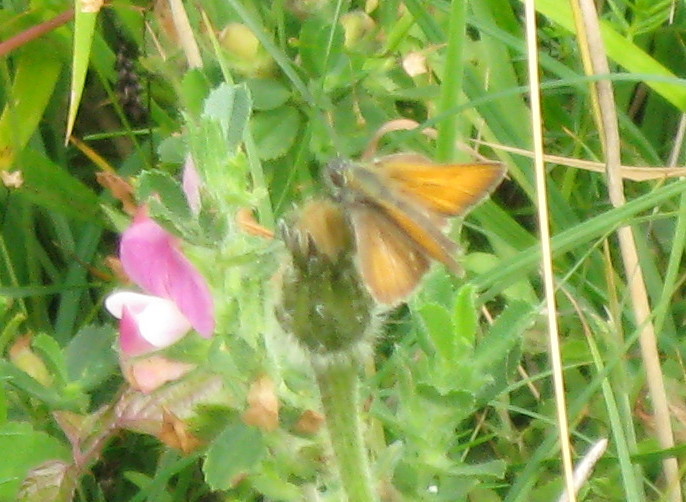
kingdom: Animalia
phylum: Arthropoda
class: Insecta
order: Lepidoptera
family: Hesperiidae
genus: Thymelicus
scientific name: Thymelicus sylvestris
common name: Small skipper
